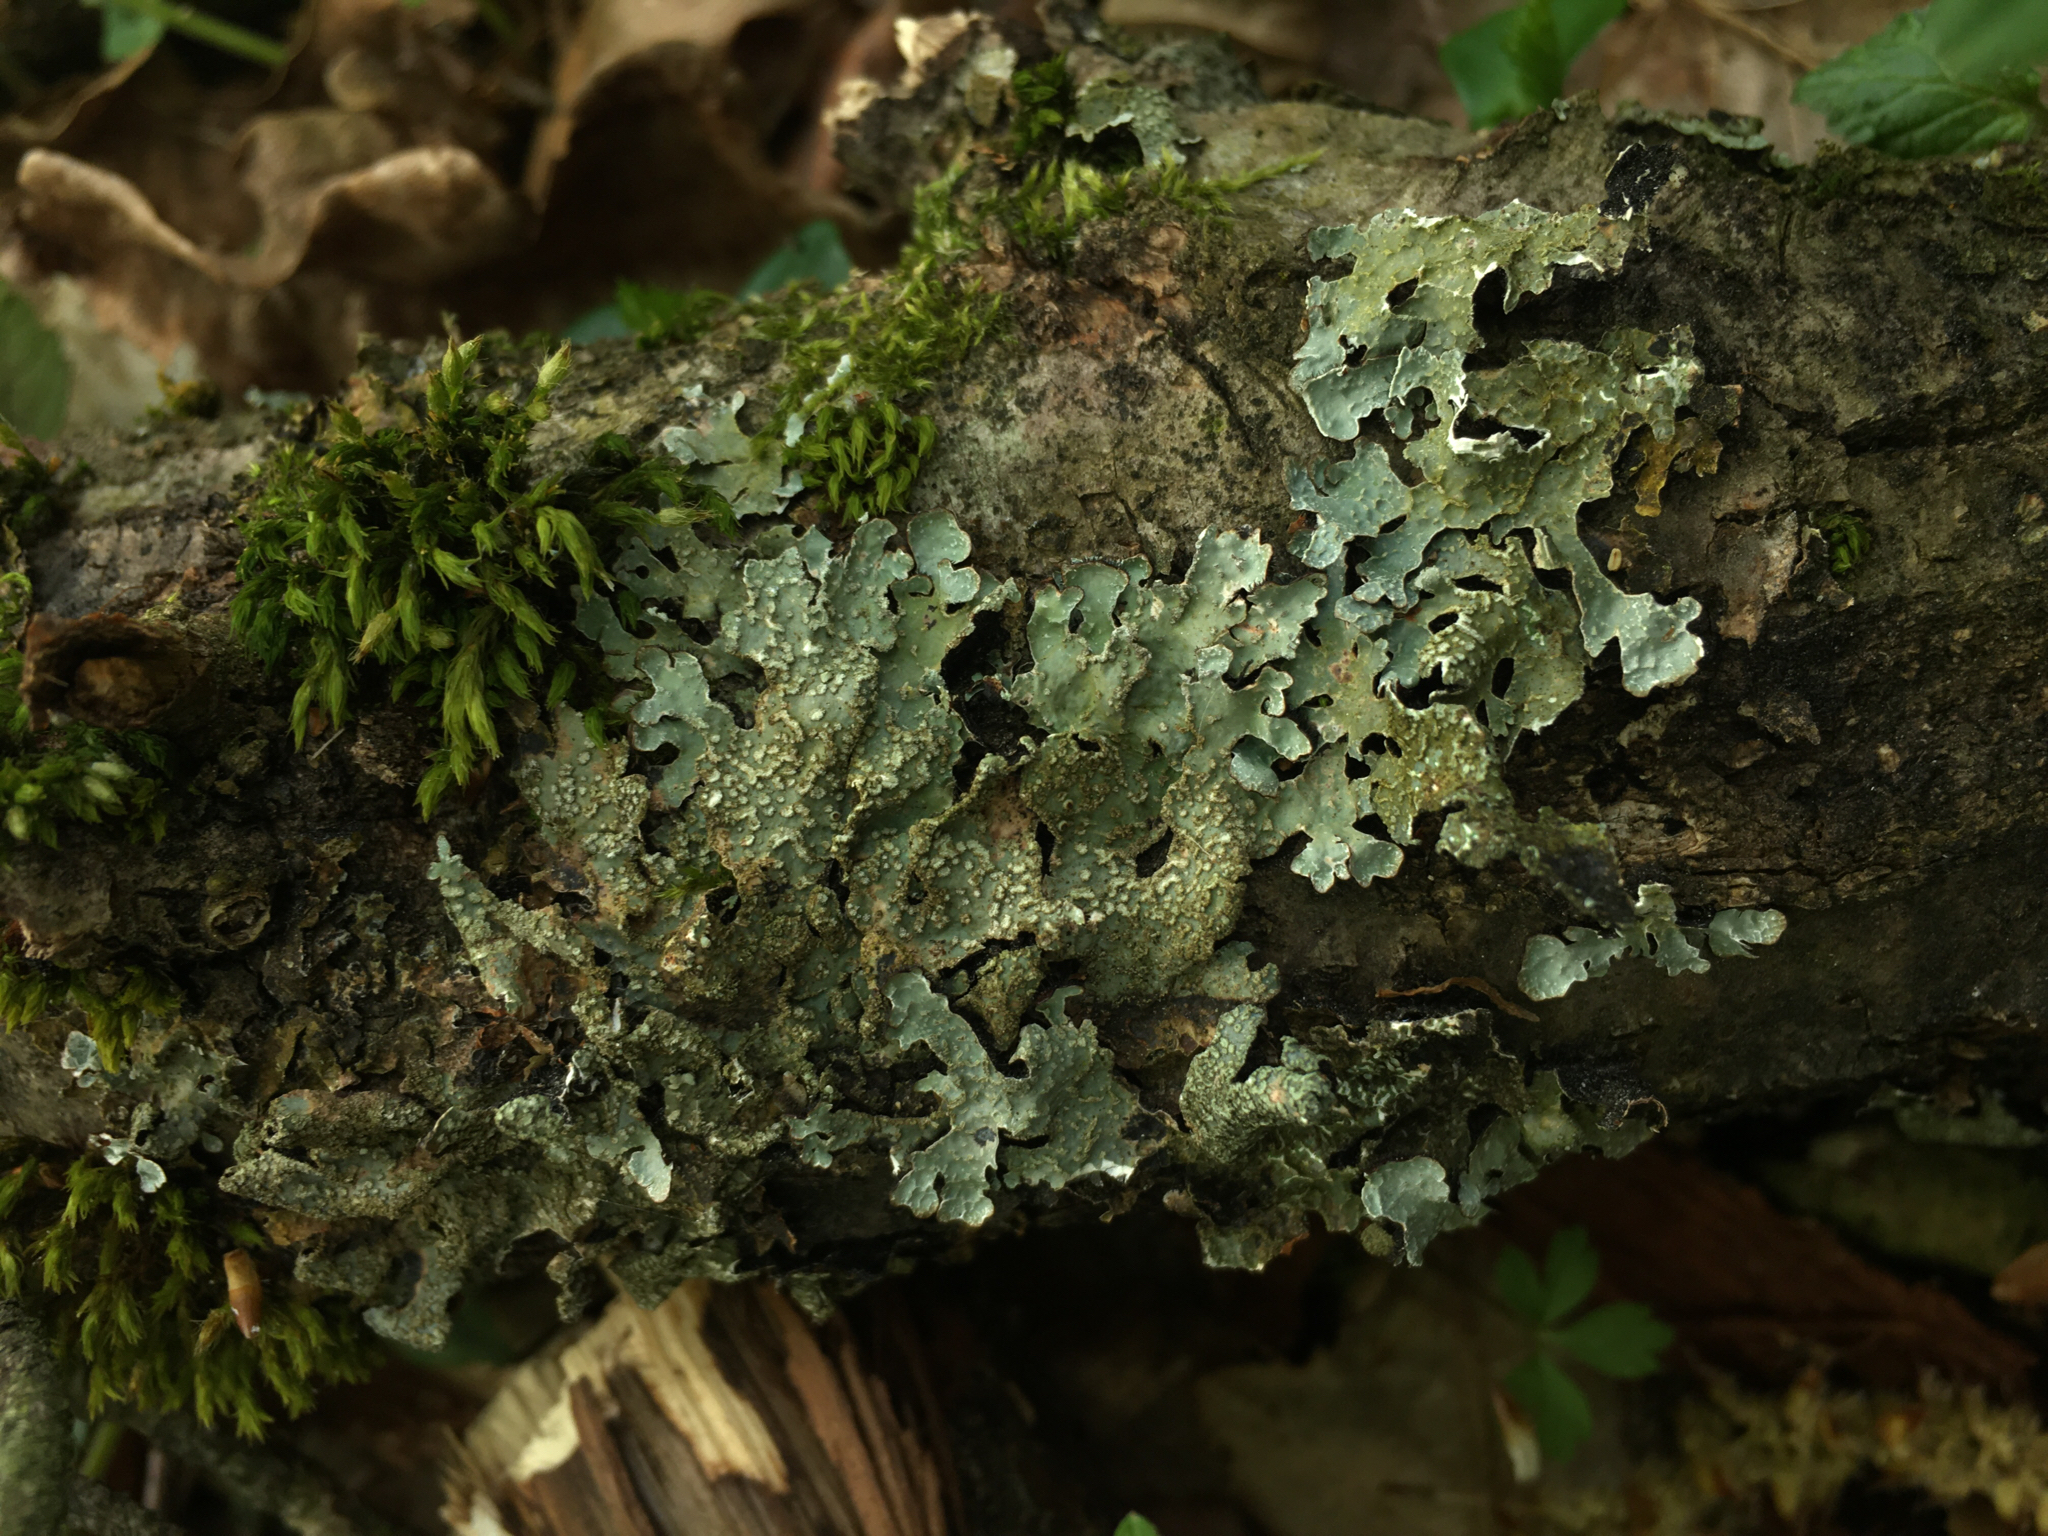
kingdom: Fungi
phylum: Ascomycota
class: Lecanoromycetes
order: Lecanorales
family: Parmeliaceae
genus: Parmelia
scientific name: Parmelia sulcata
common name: Netted shield lichen
